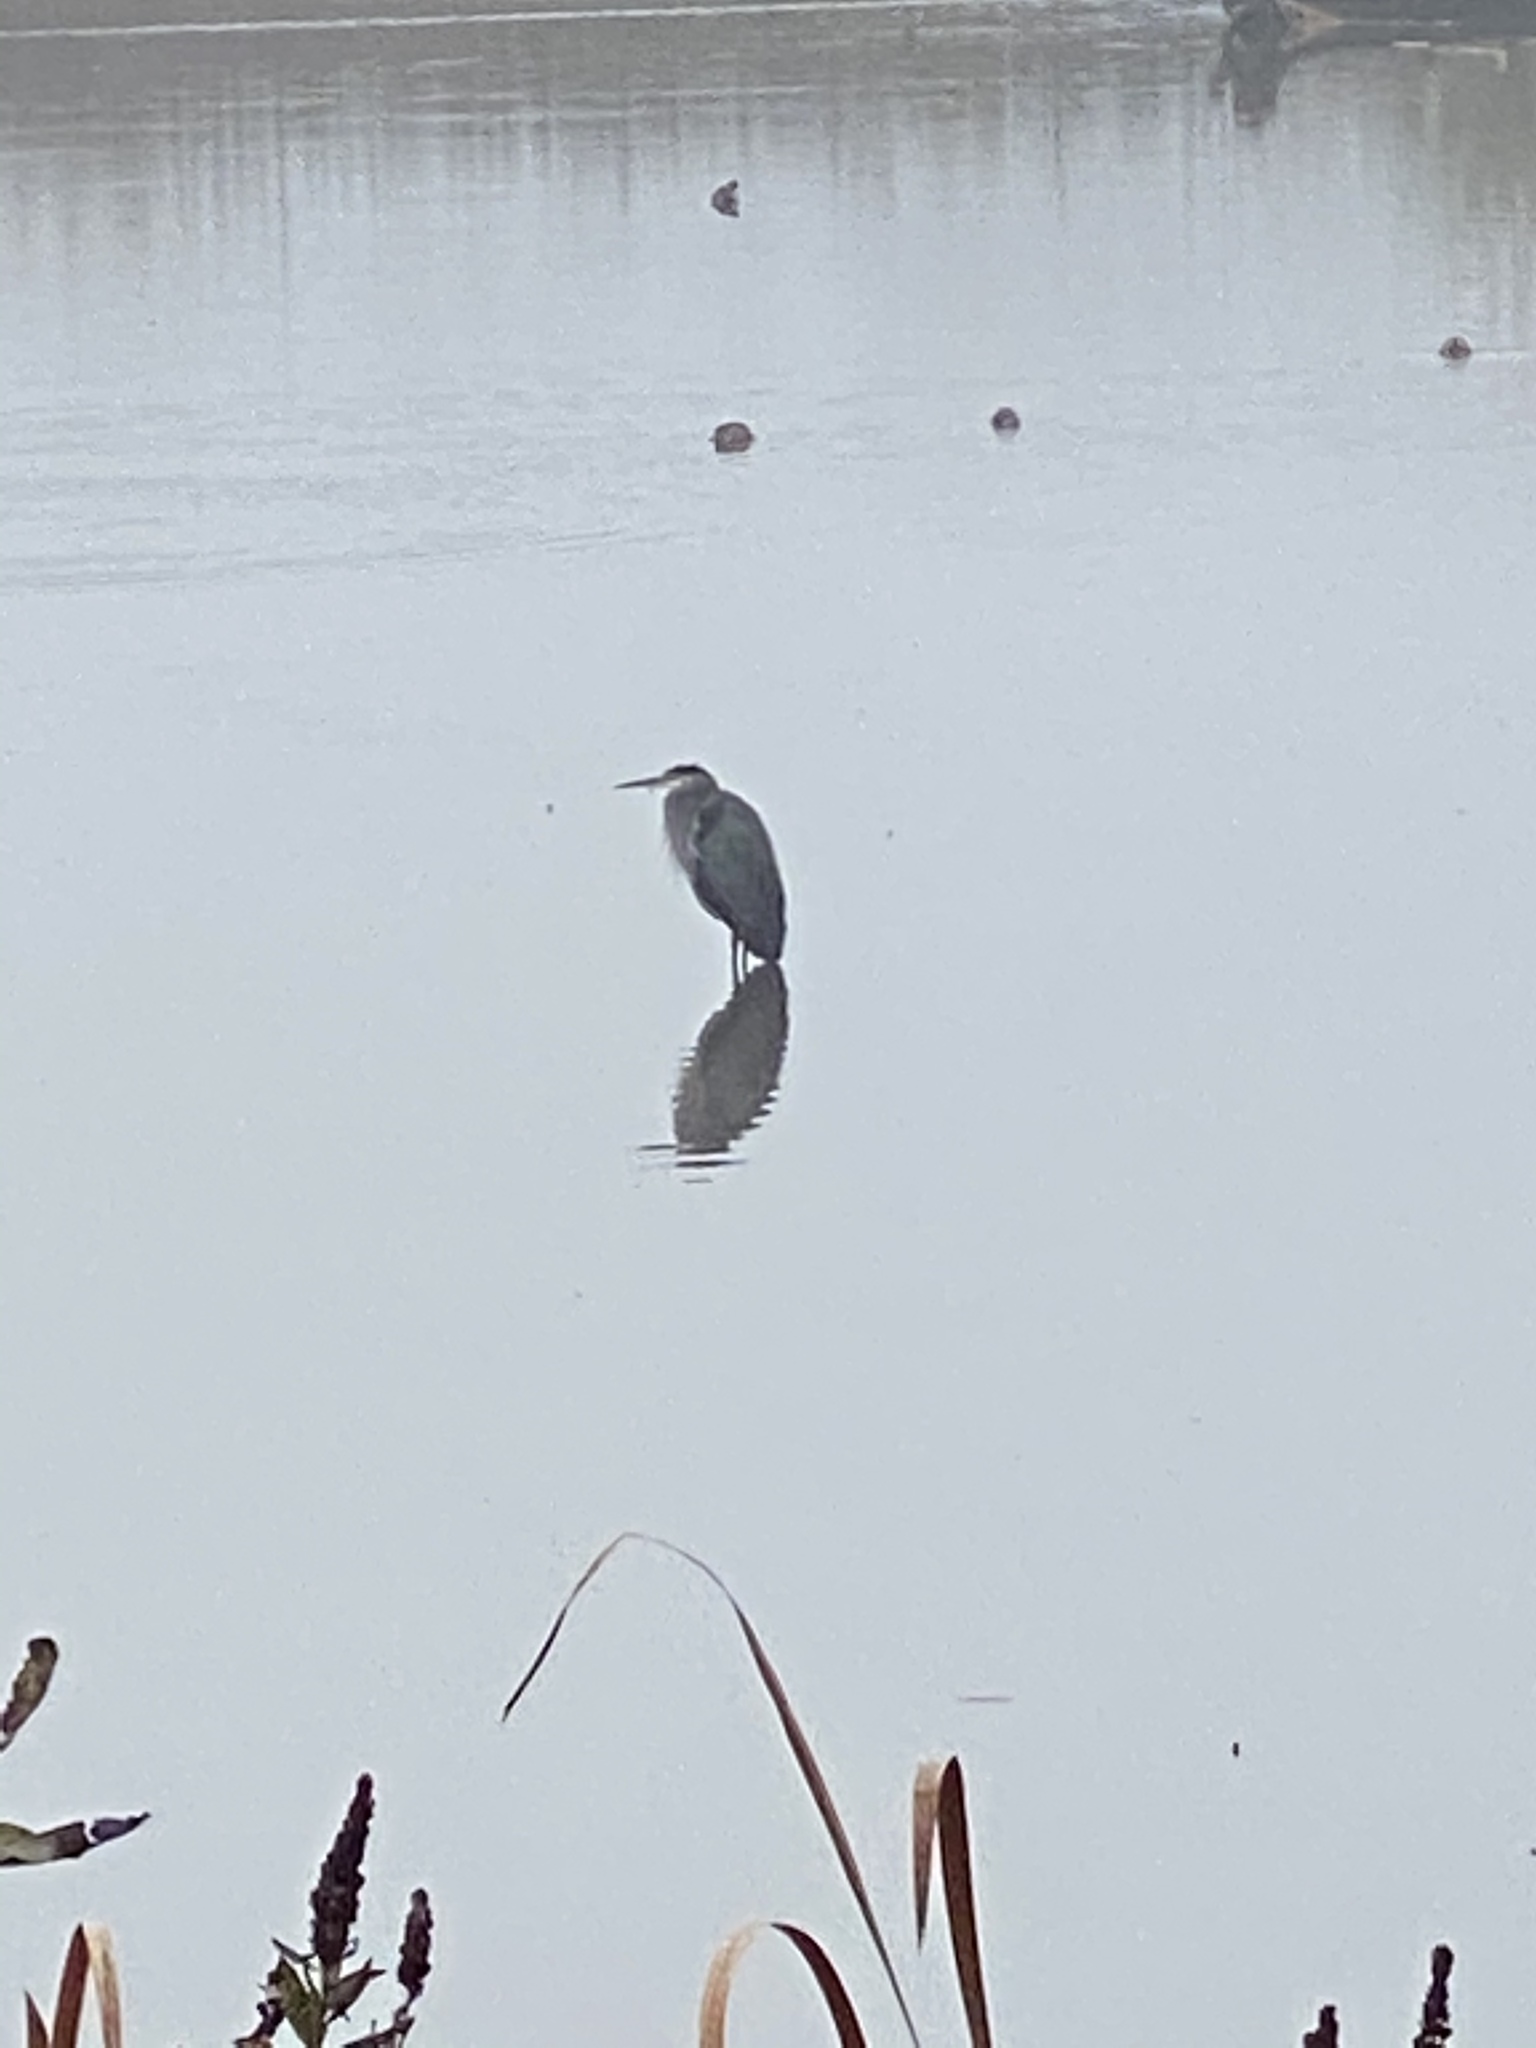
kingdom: Animalia
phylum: Chordata
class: Aves
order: Pelecaniformes
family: Ardeidae
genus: Ardea
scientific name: Ardea herodias
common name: Great blue heron
